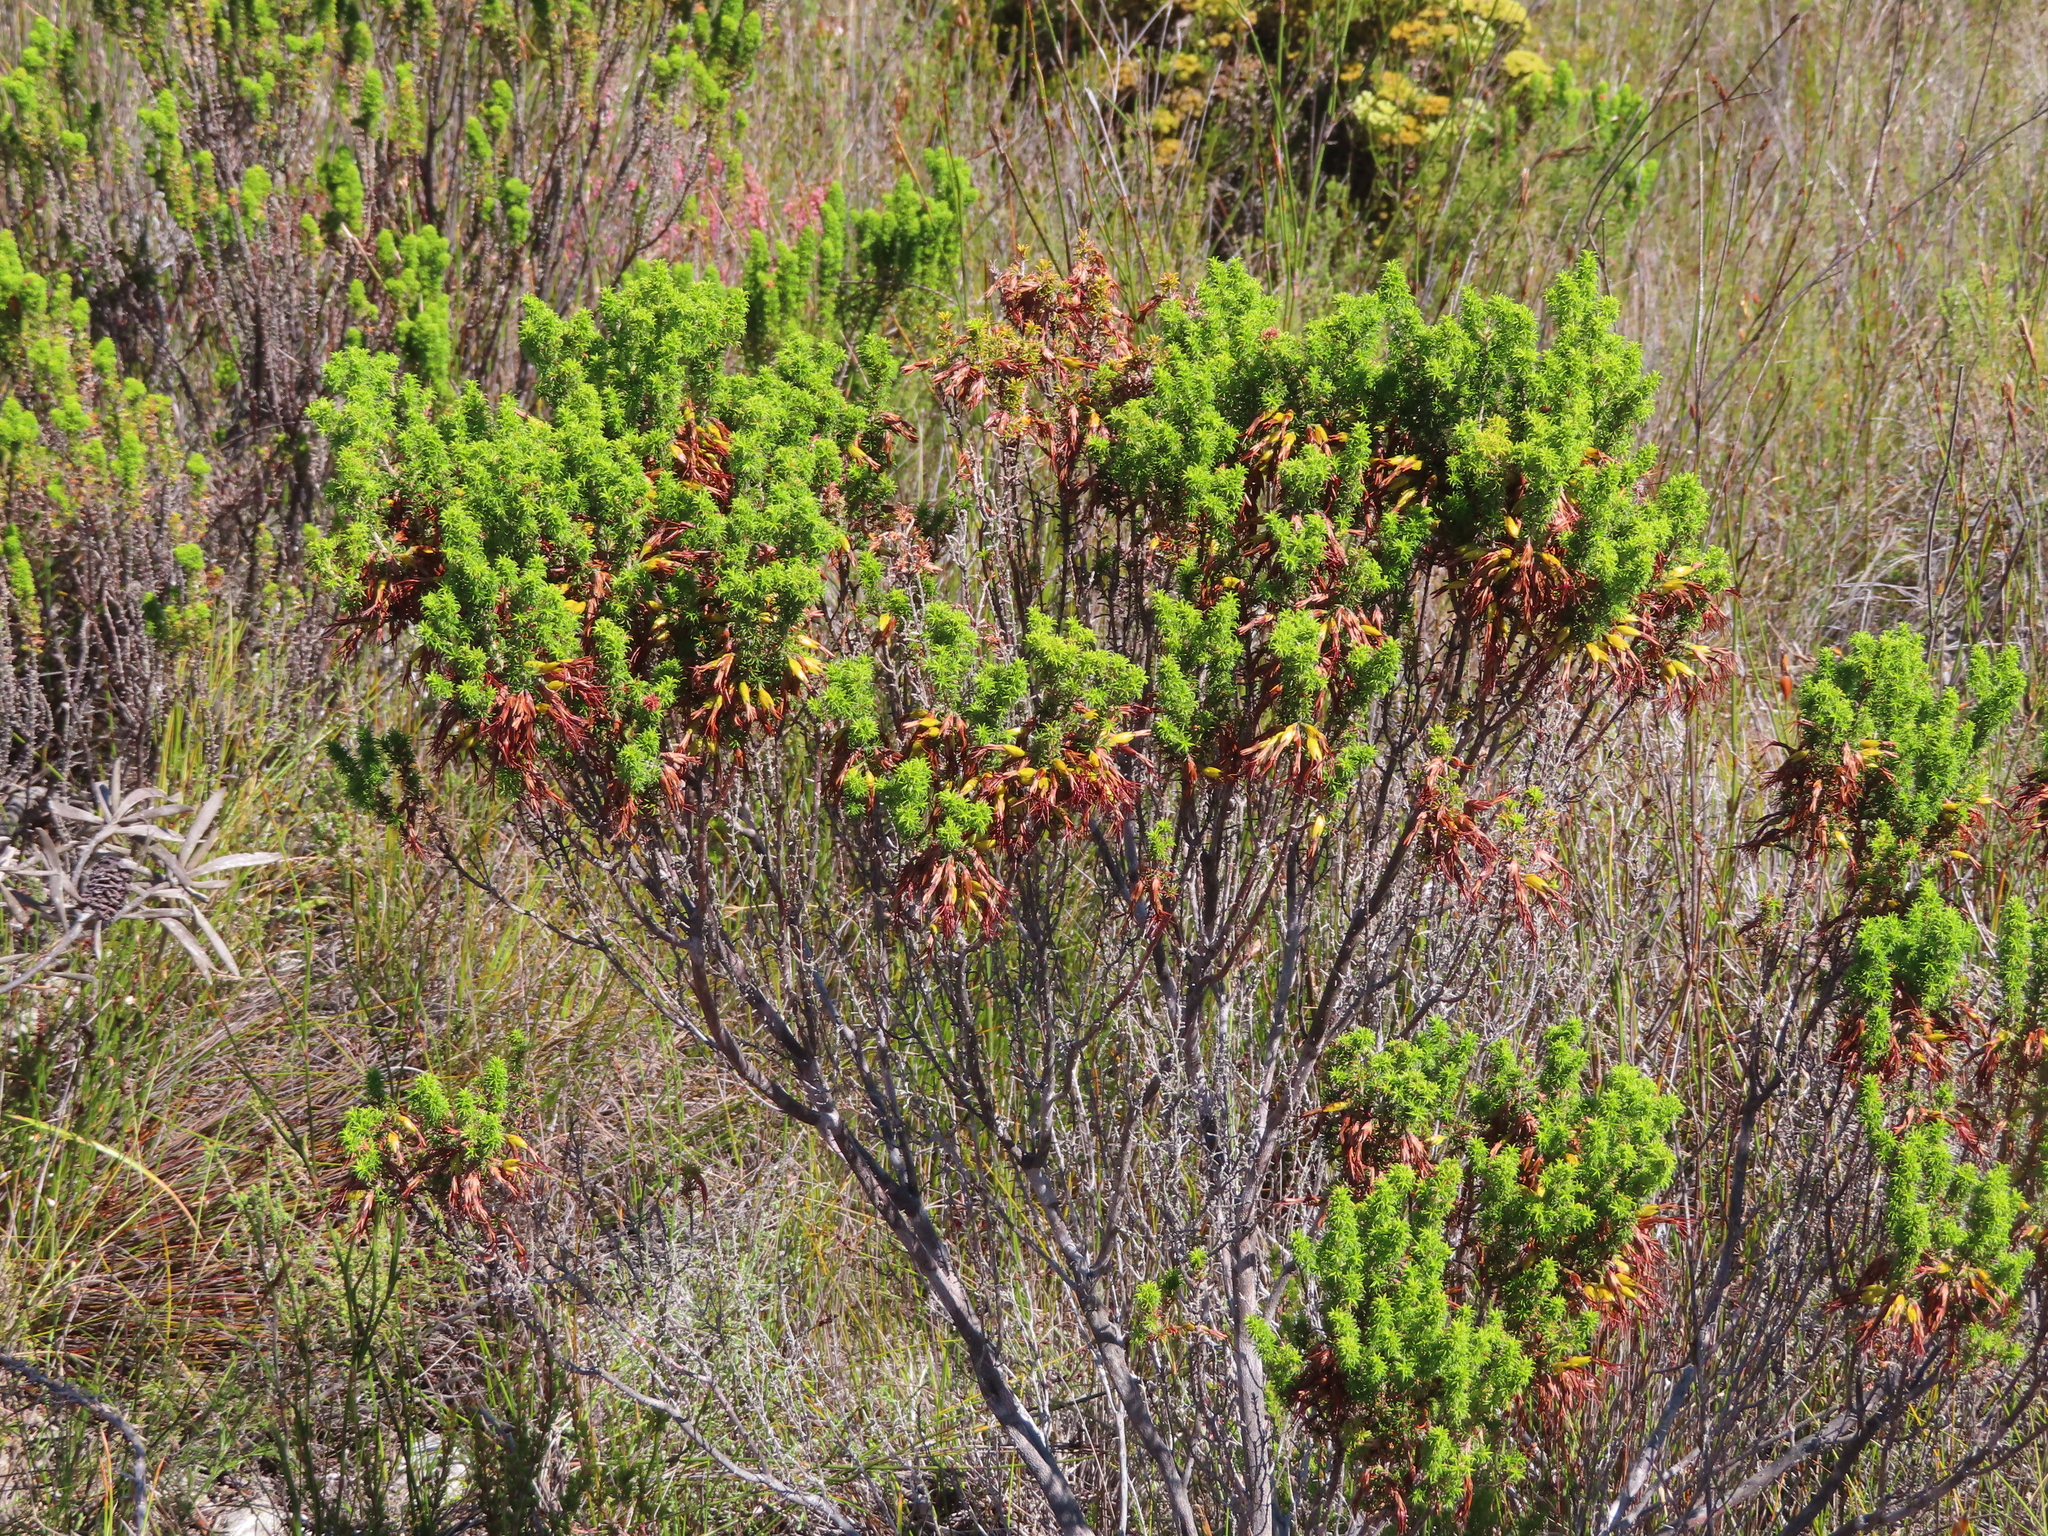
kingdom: Plantae
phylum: Tracheophyta
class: Magnoliopsida
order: Ericales
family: Ericaceae
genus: Erica
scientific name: Erica coccinea
